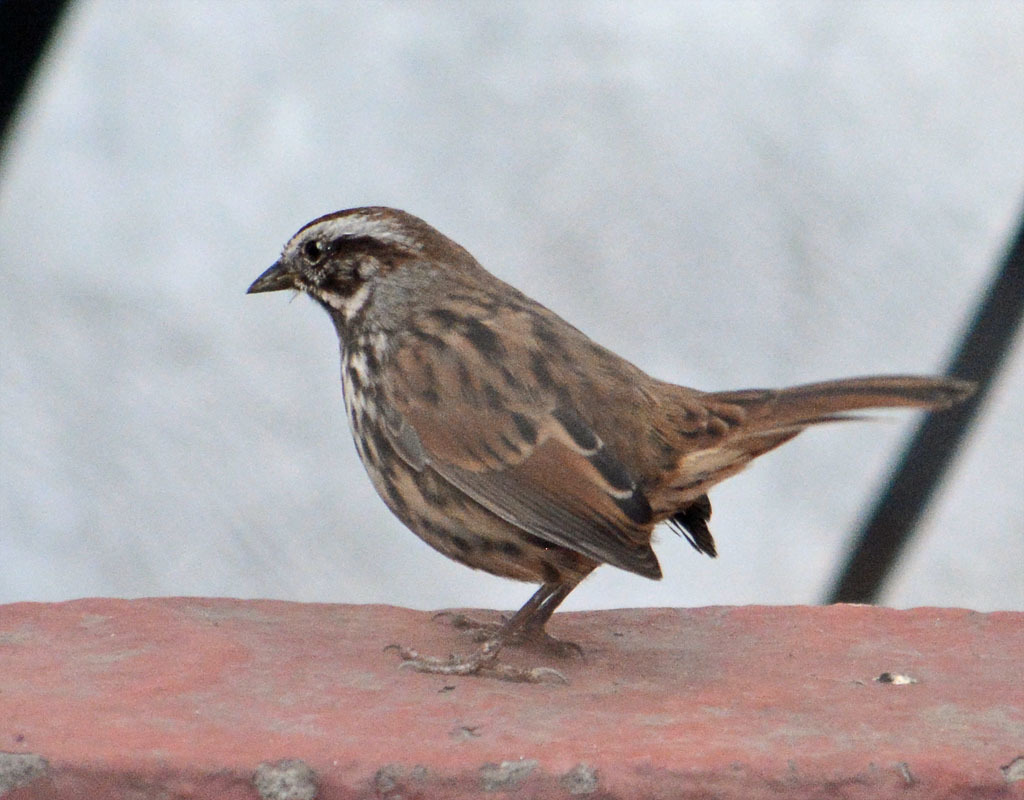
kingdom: Animalia
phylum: Chordata
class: Aves
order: Passeriformes
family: Passerellidae
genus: Melospiza
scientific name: Melospiza melodia
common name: Song sparrow
